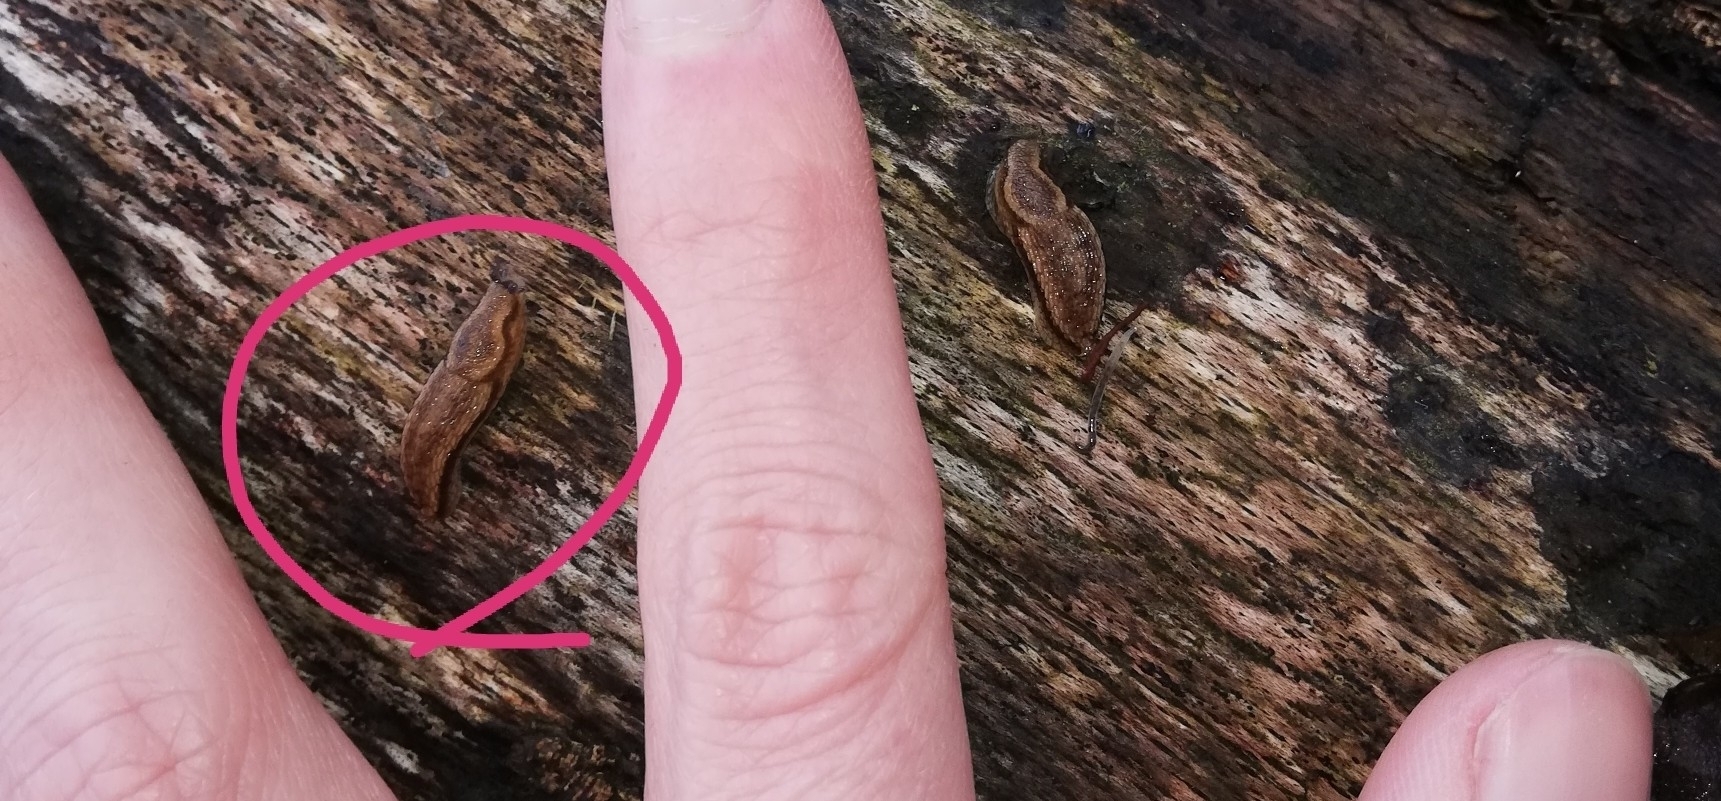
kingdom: Animalia
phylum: Mollusca
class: Gastropoda
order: Stylommatophora
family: Arionidae
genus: Arion
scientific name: Arion fuscus
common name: Northern dusky slug
